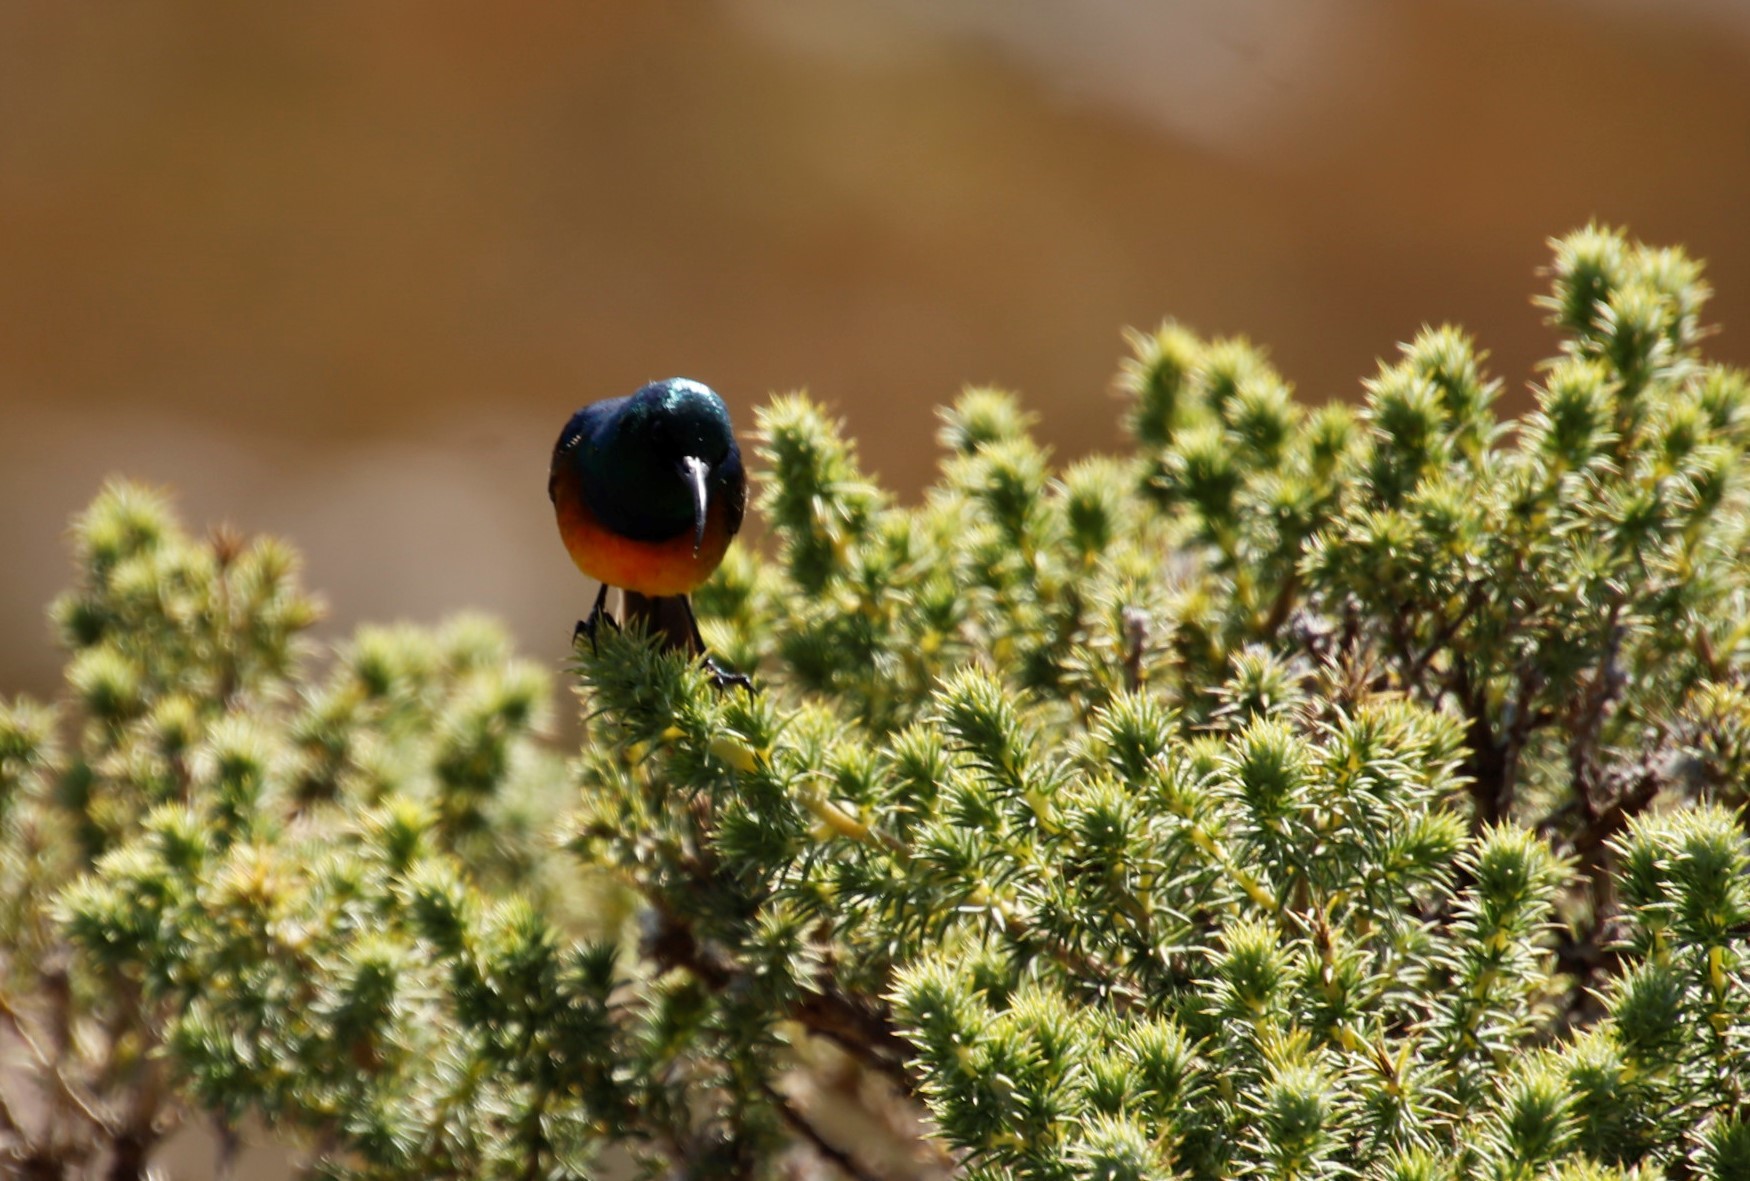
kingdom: Plantae
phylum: Tracheophyta
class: Magnoliopsida
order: Fabales
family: Fabaceae
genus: Aspalathus
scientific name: Aspalathus chenopoda
